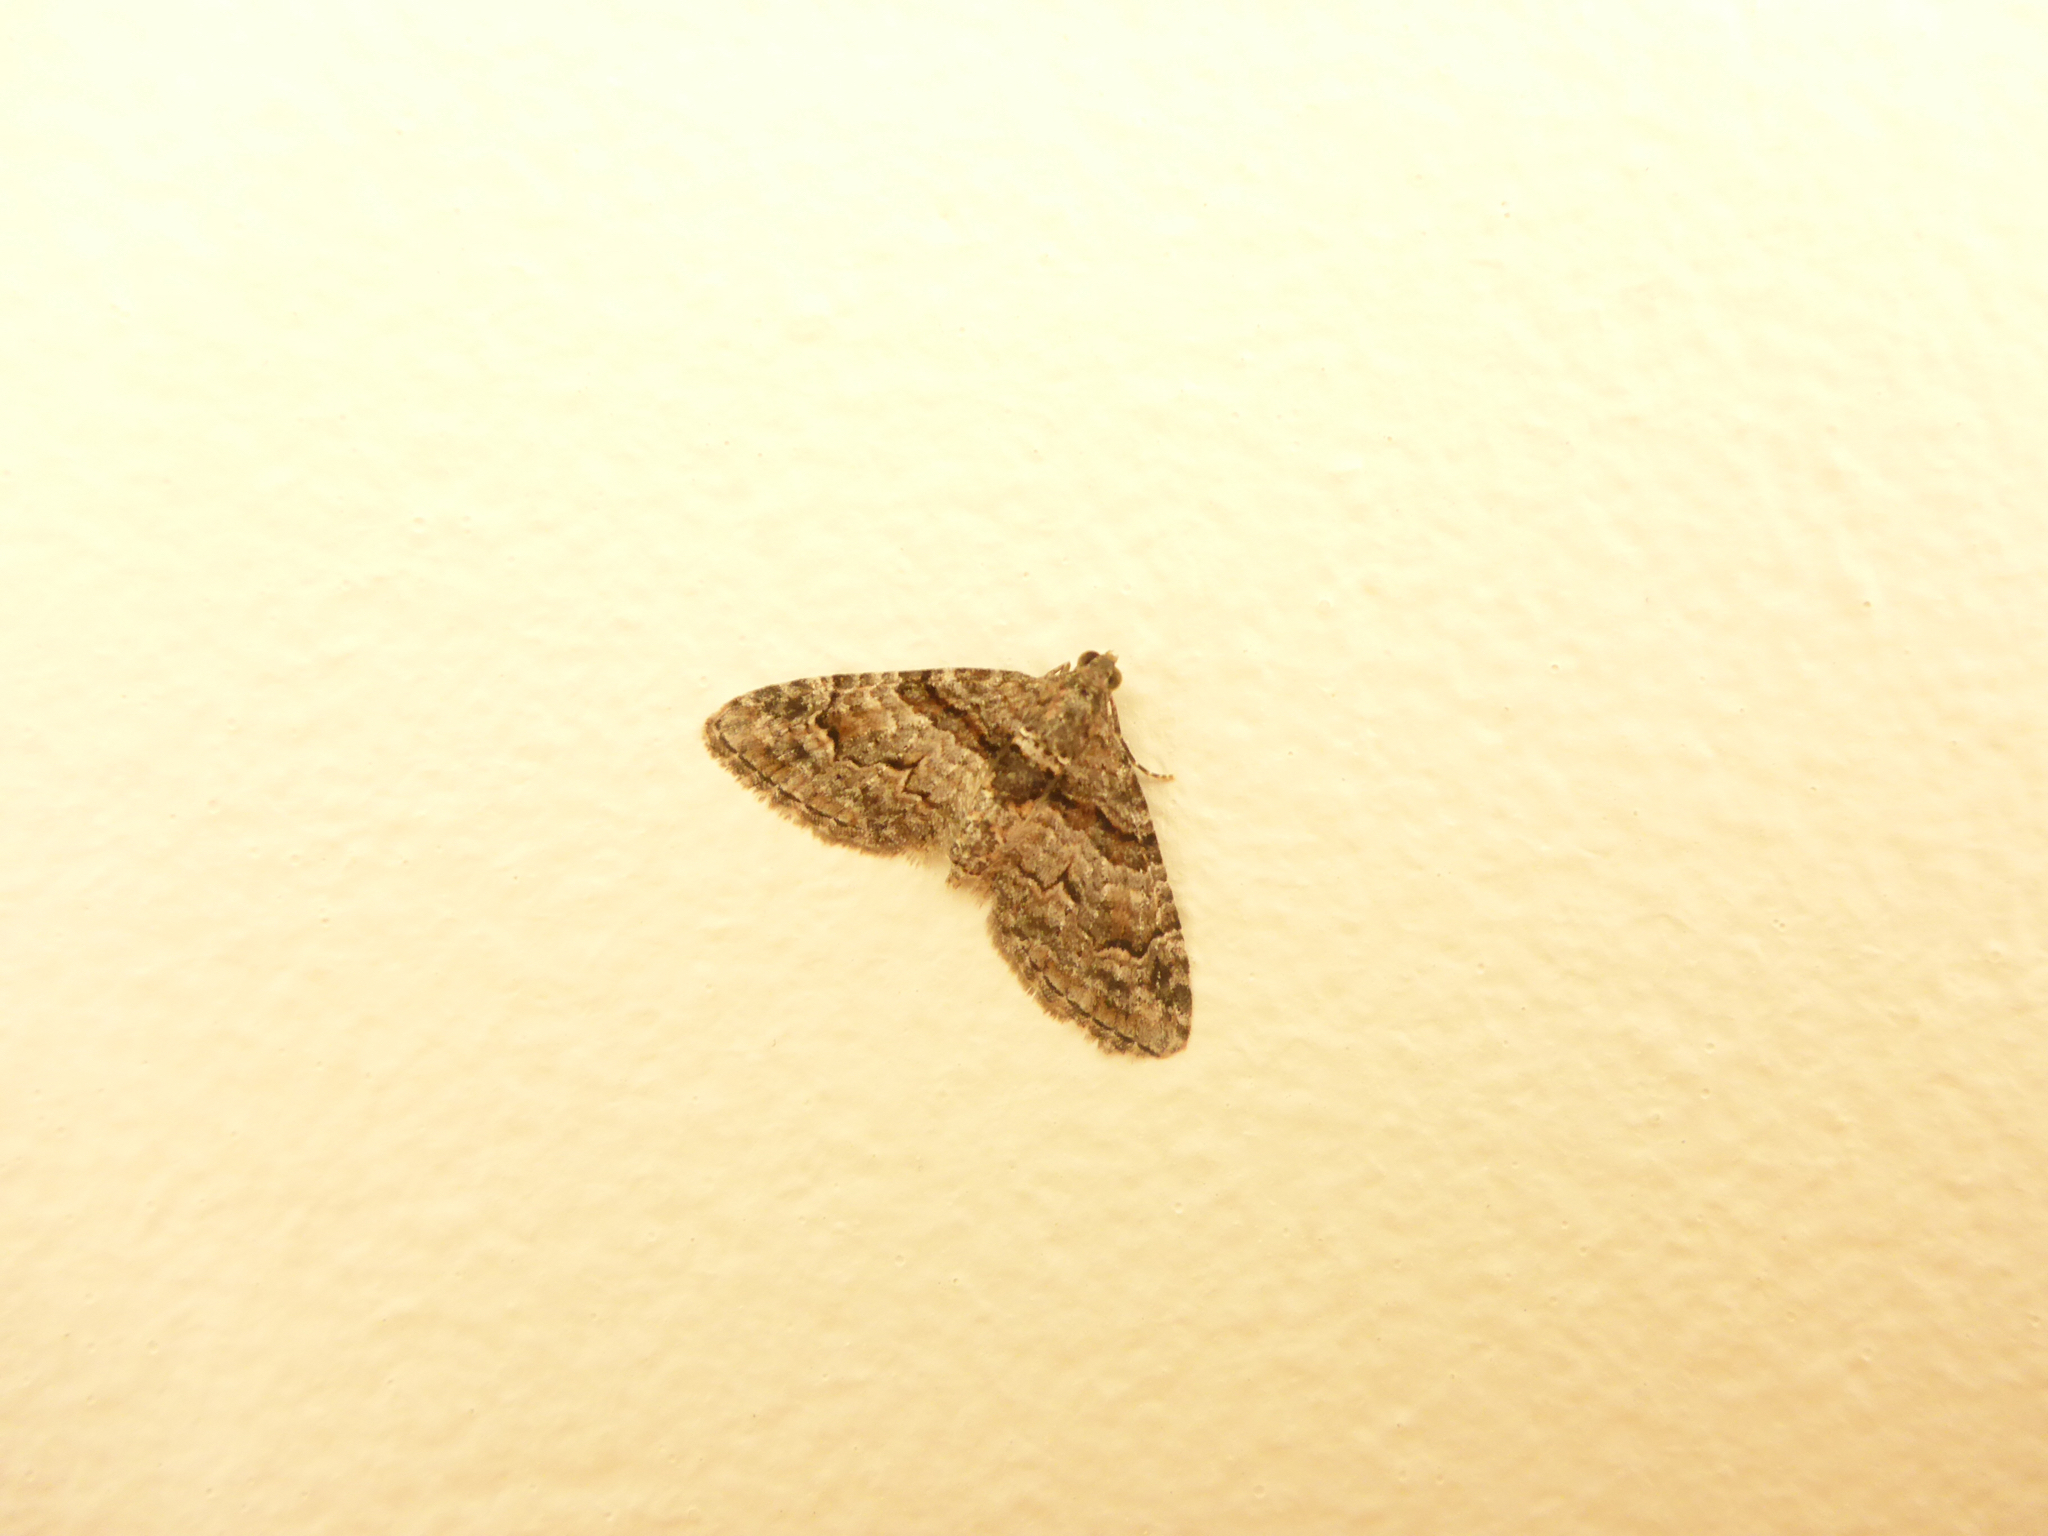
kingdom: Animalia
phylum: Arthropoda
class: Insecta
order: Lepidoptera
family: Geometridae
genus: Phrissogonus
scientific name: Phrissogonus laticostata
